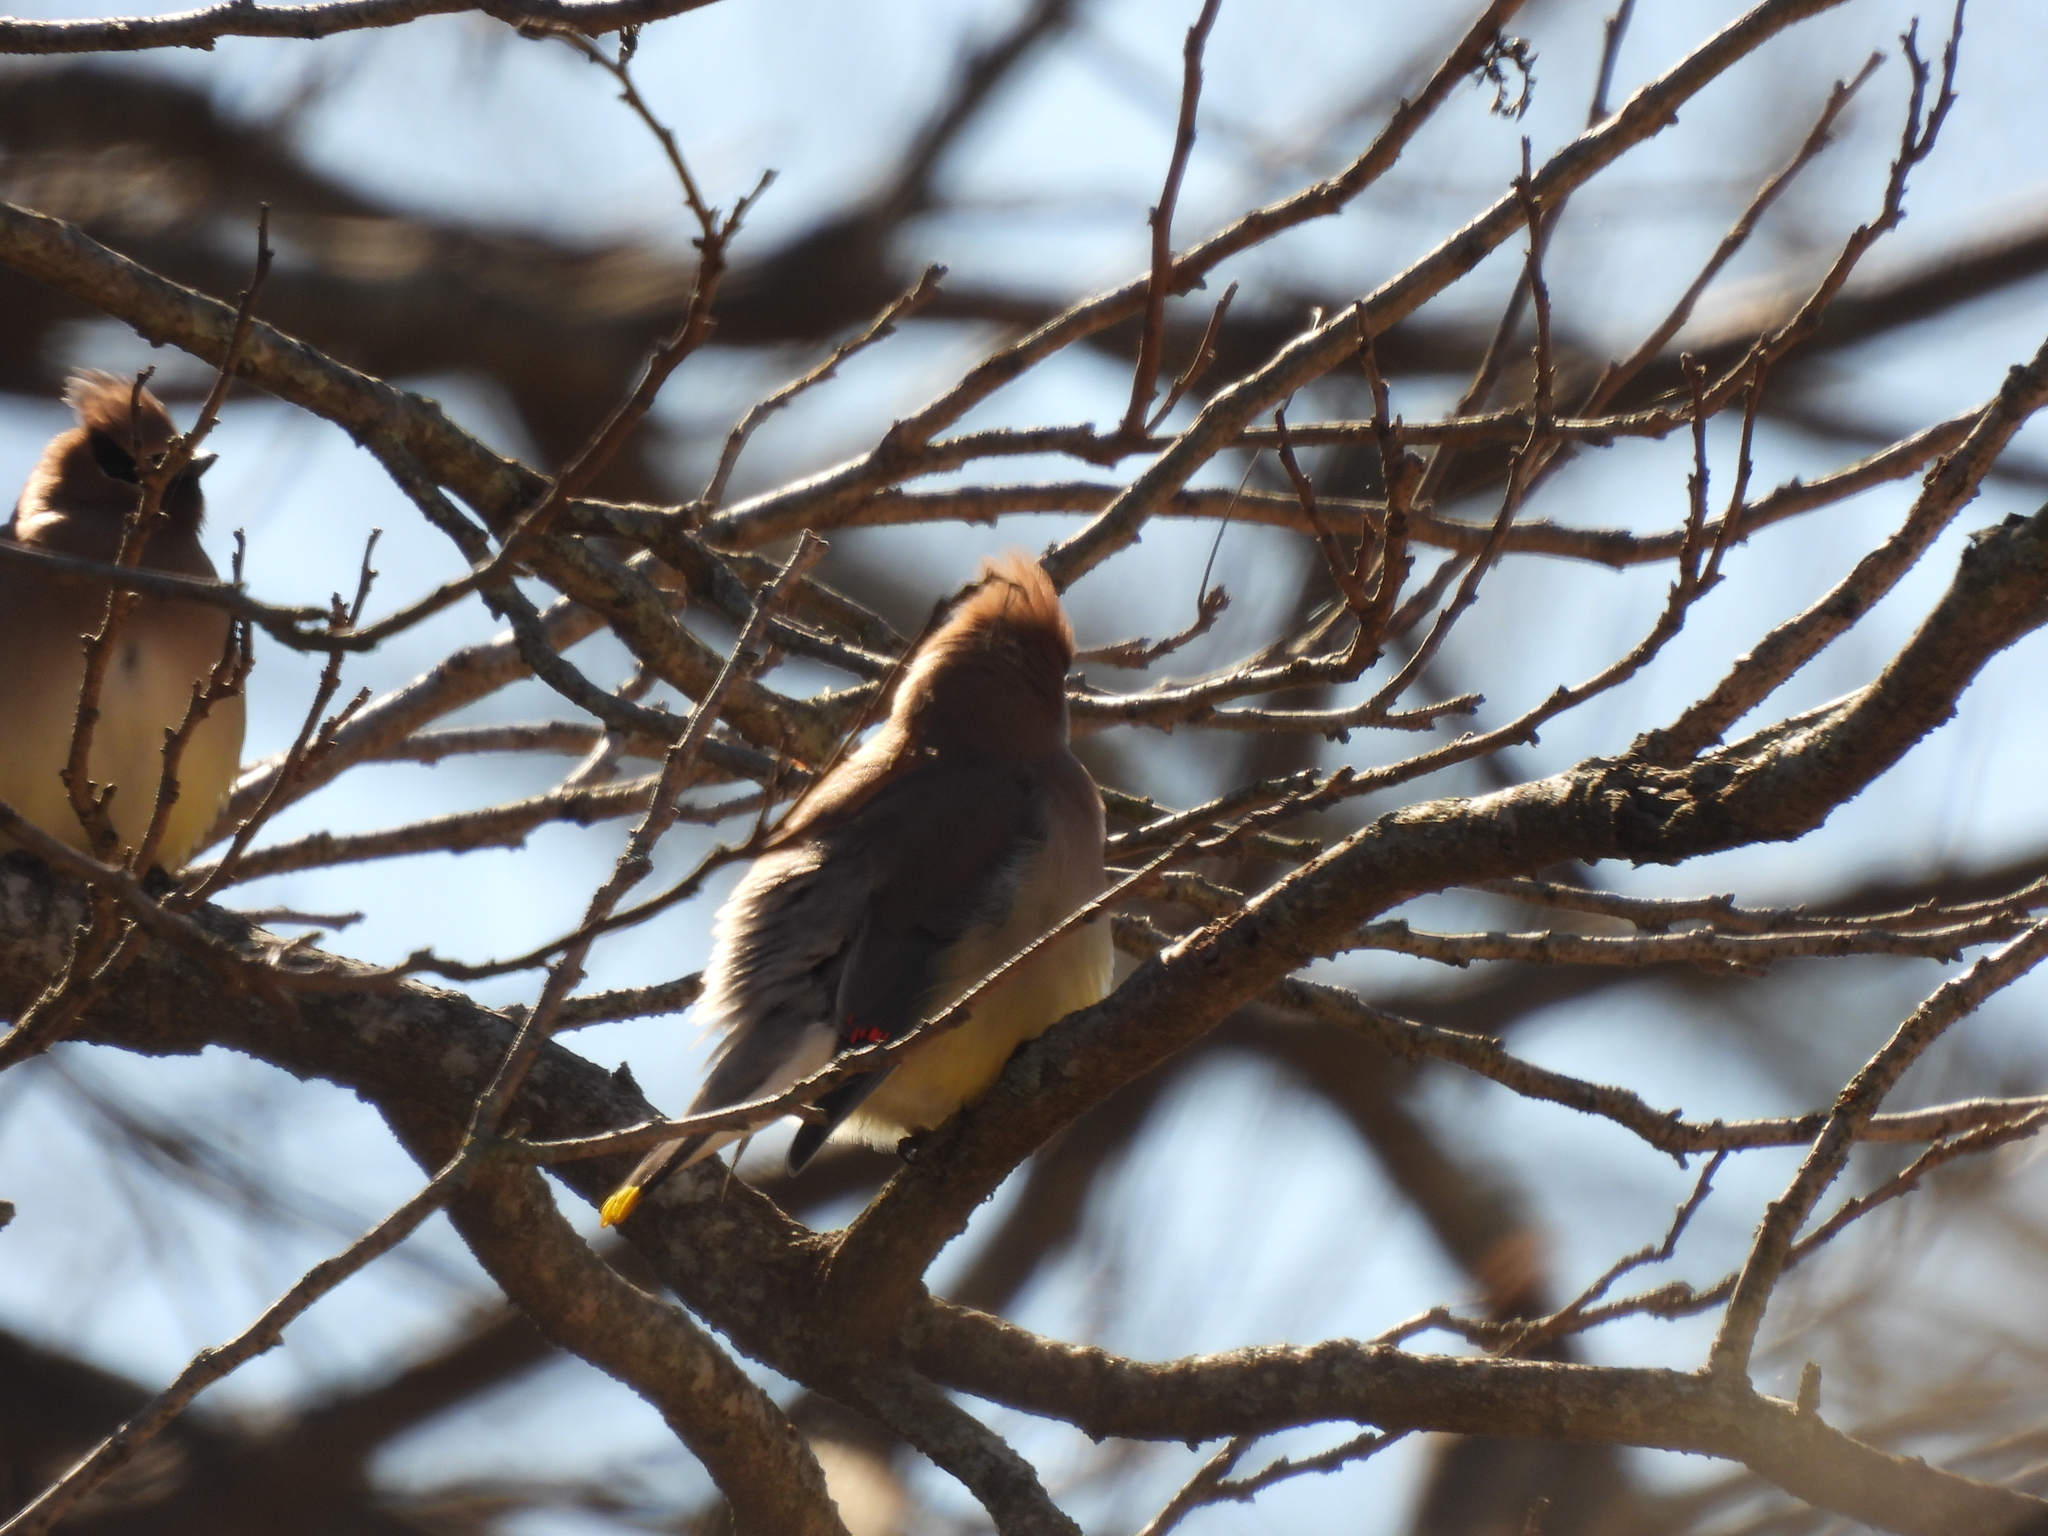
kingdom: Animalia
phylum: Chordata
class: Aves
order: Passeriformes
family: Bombycillidae
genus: Bombycilla
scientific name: Bombycilla cedrorum
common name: Cedar waxwing
